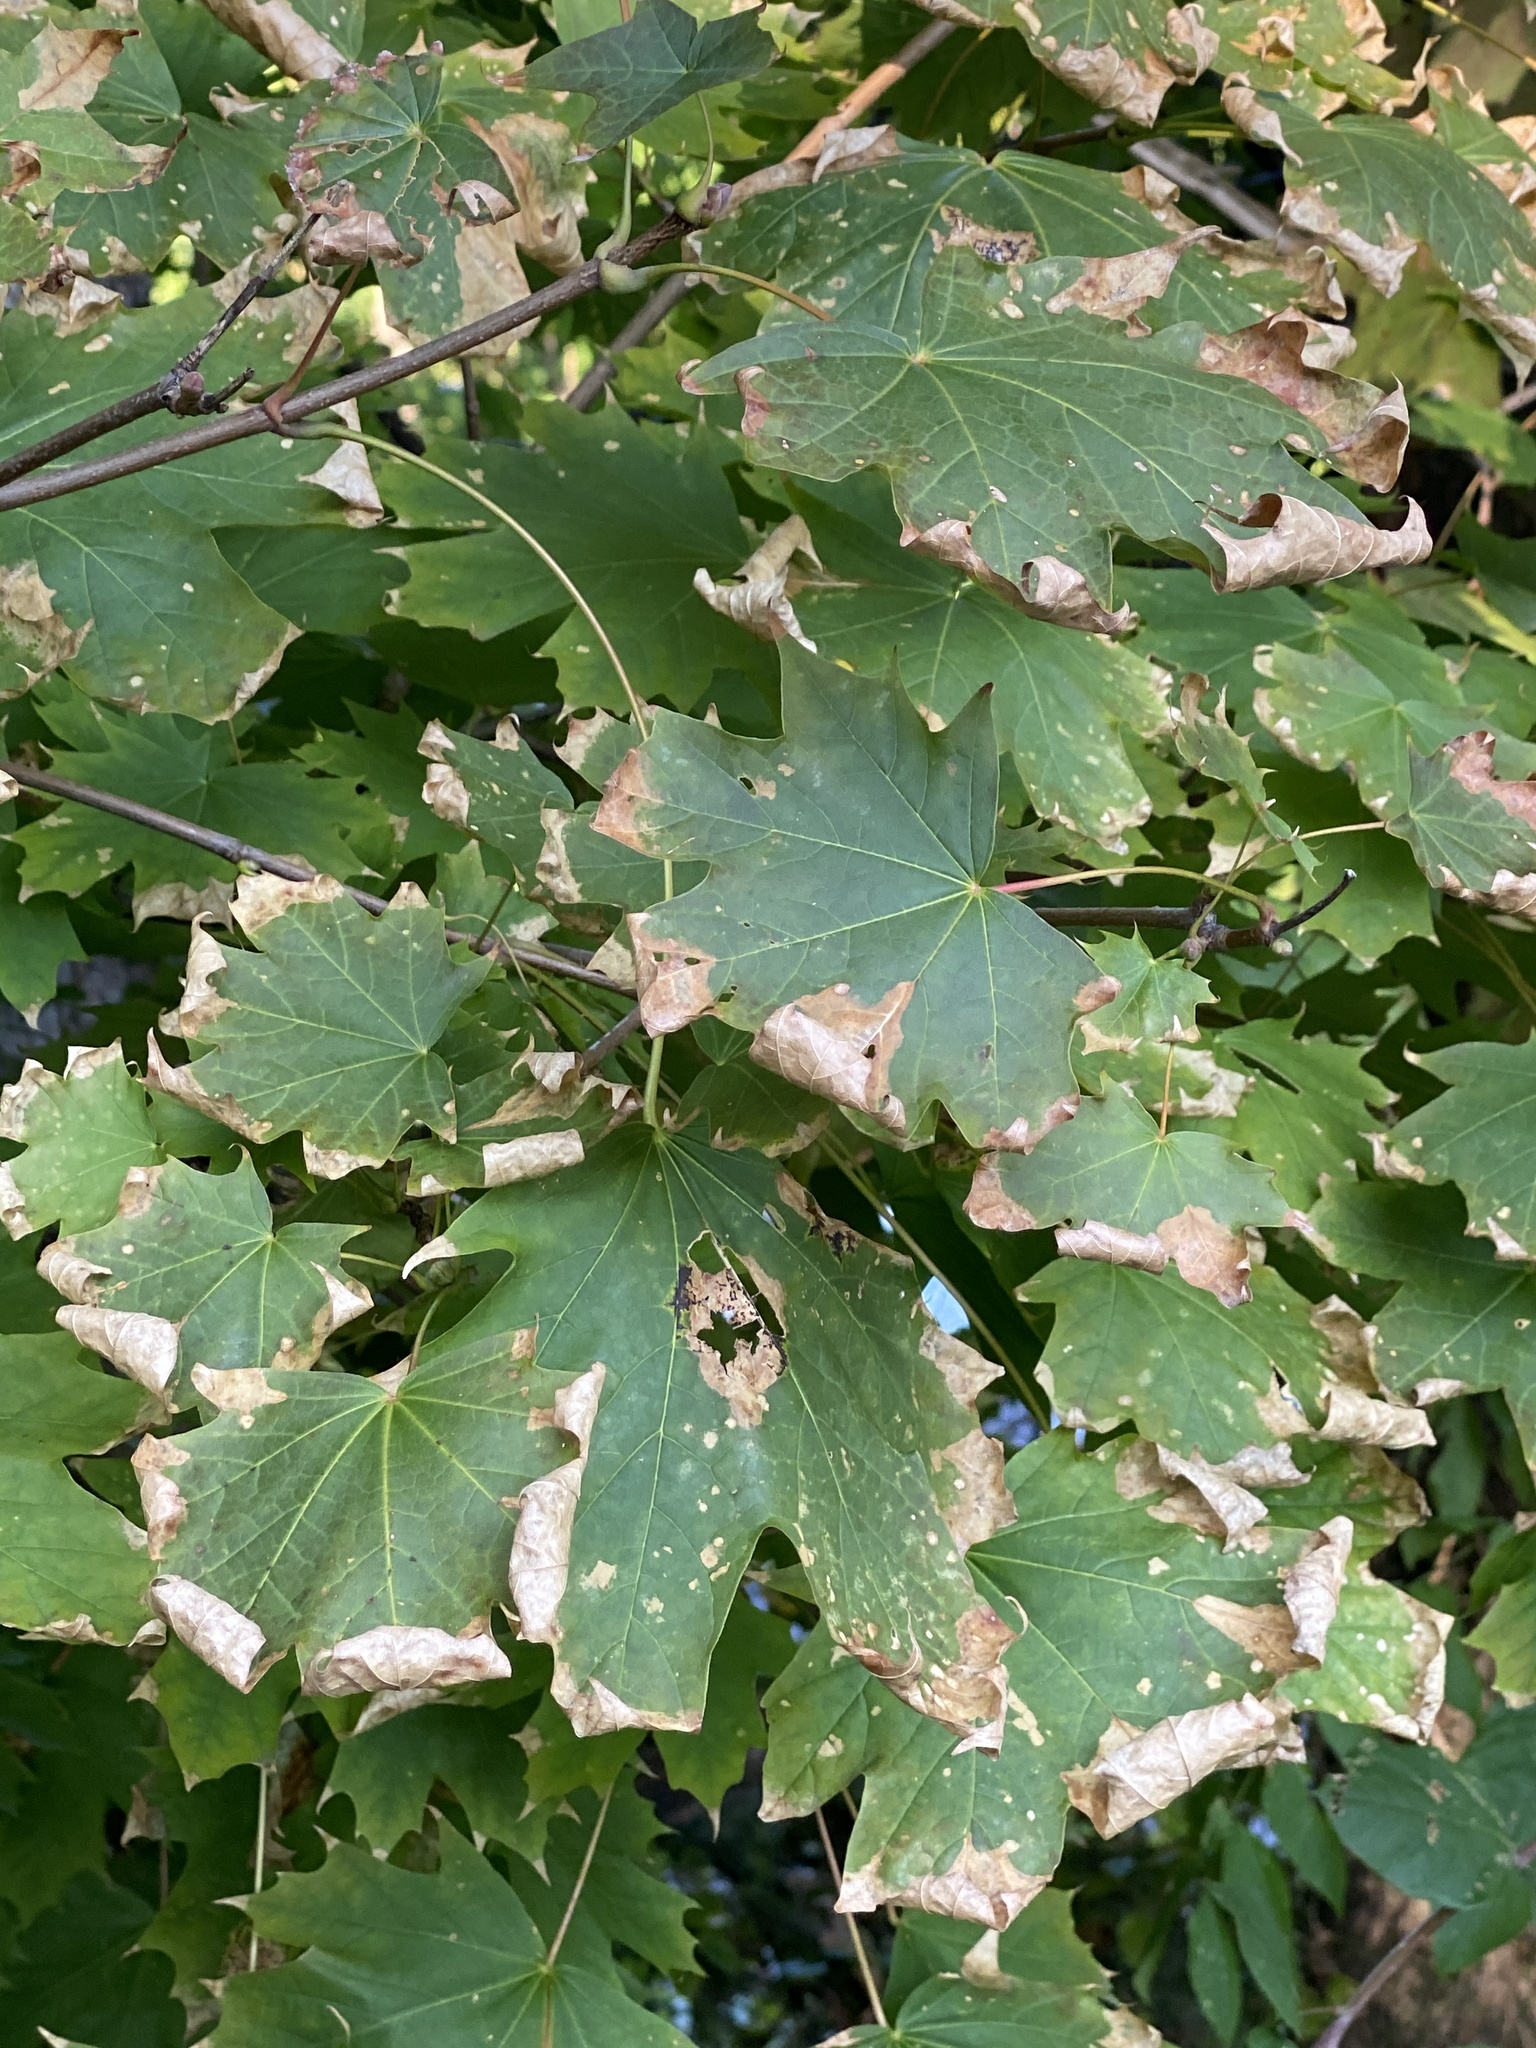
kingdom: Fungi
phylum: Ascomycota
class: Leotiomycetes
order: Rhytismatales
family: Rhytismataceae
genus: Rhytisma
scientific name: Rhytisma acerinum
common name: European tar spot
